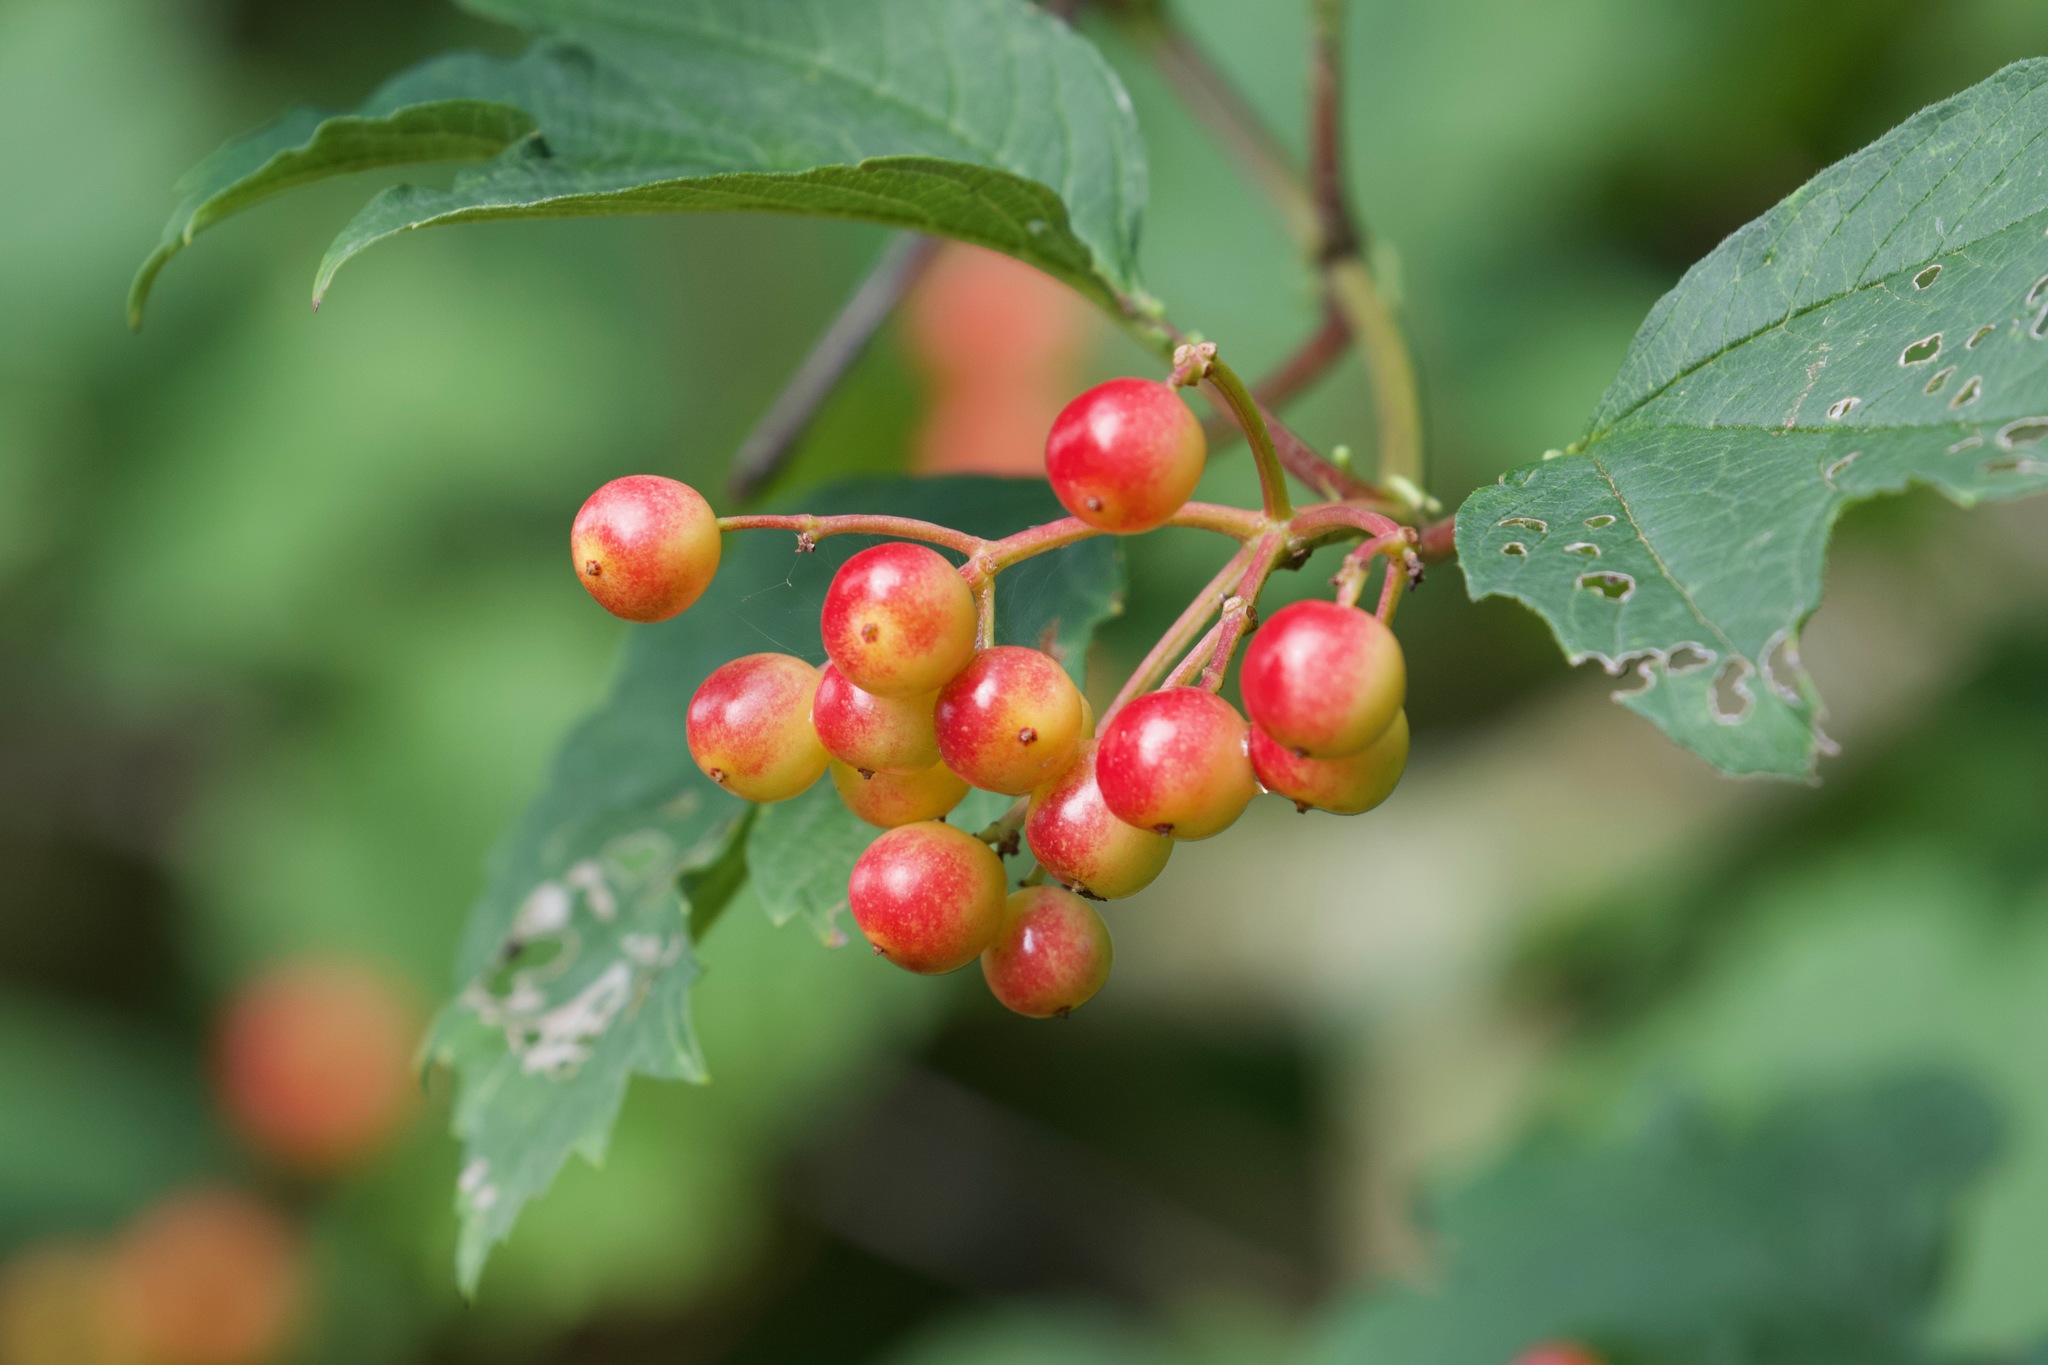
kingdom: Plantae
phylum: Tracheophyta
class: Magnoliopsida
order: Dipsacales
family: Viburnaceae
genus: Viburnum
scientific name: Viburnum opulus
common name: Guelder-rose
